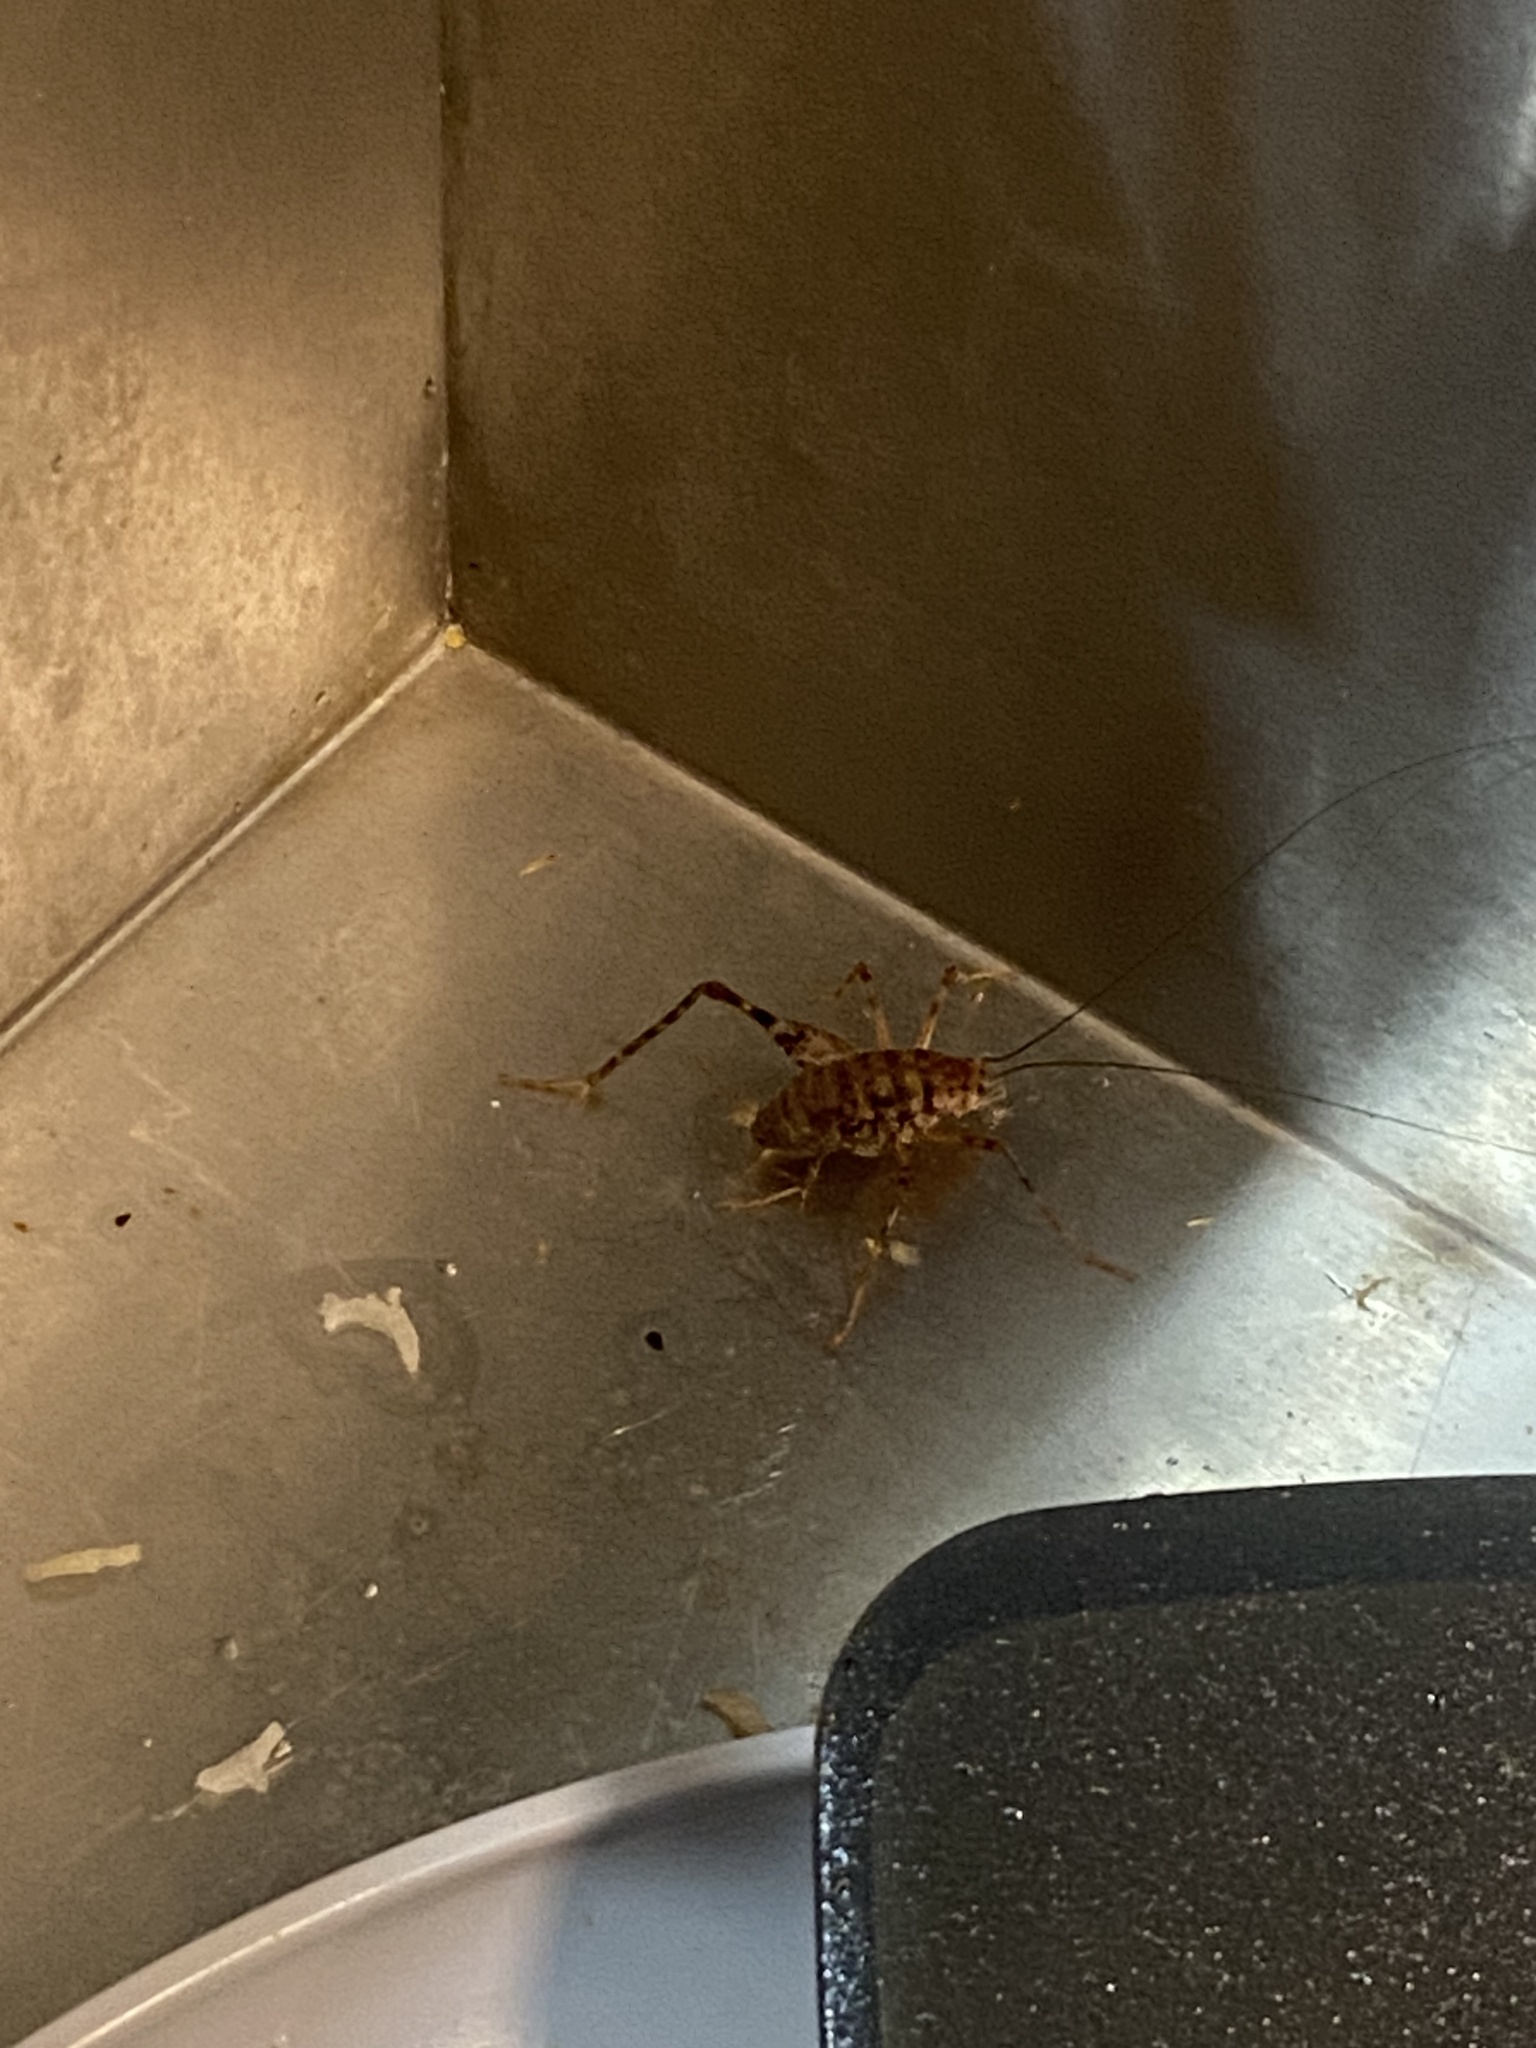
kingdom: Animalia
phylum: Arthropoda
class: Insecta
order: Orthoptera
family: Rhaphidophoridae
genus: Tachycines
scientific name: Tachycines asynamorus
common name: Greenhouse camel cricket
